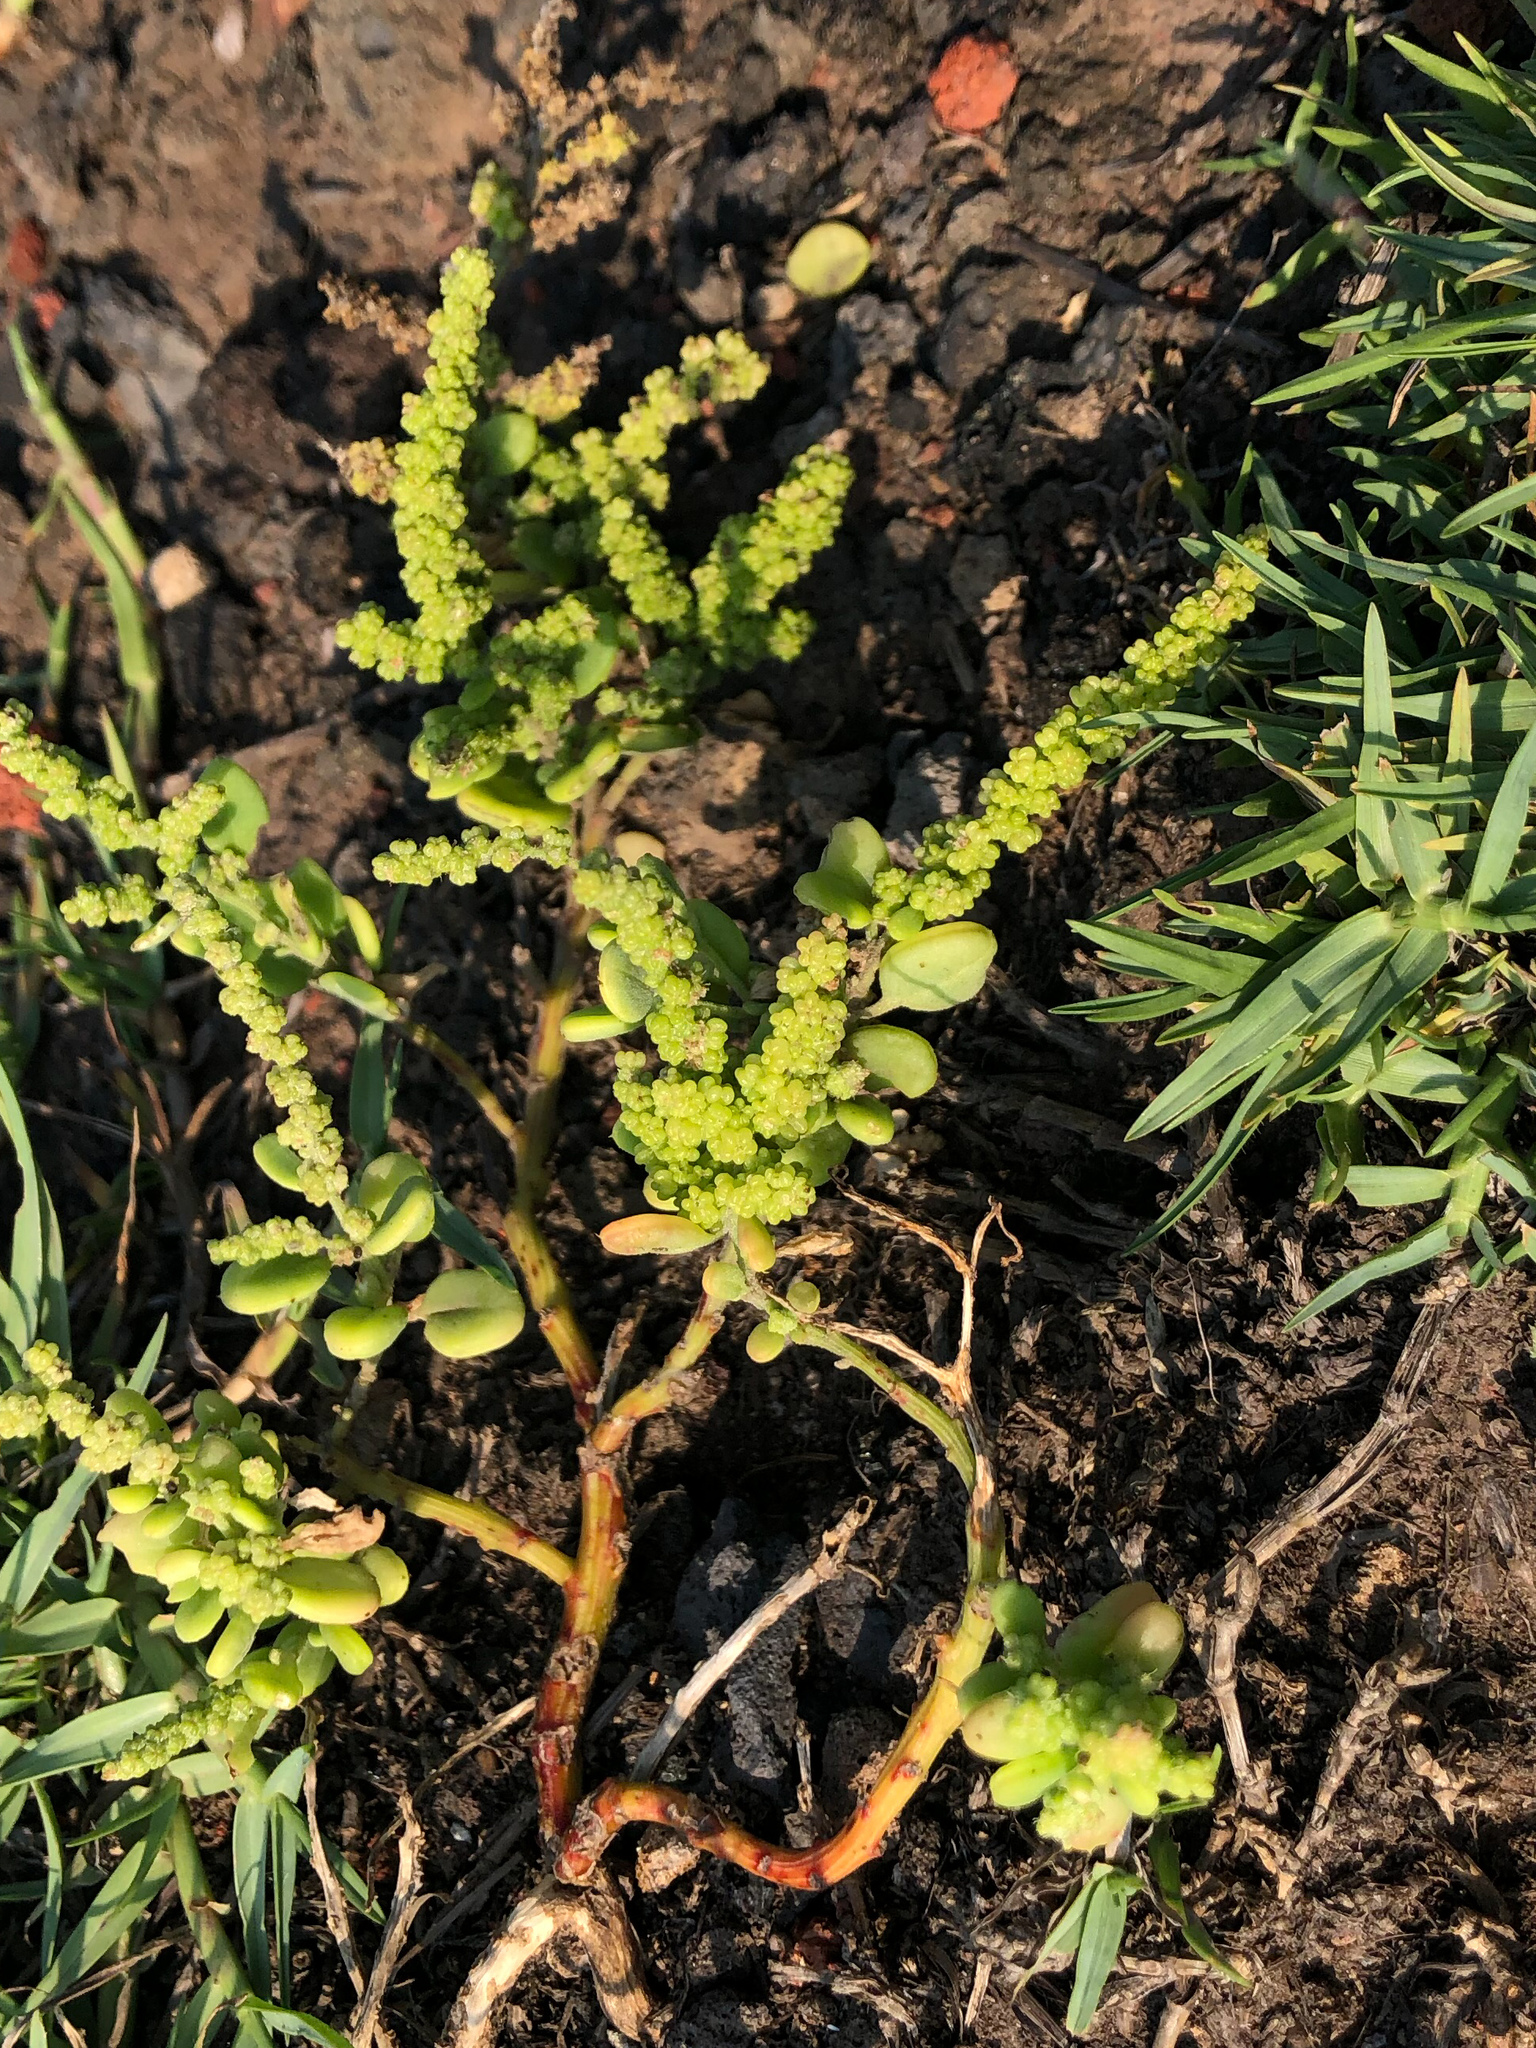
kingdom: Plantae
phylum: Tracheophyta
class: Magnoliopsida
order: Caryophyllales
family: Amaranthaceae
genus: Chenopodium
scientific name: Chenopodium acuminatum
